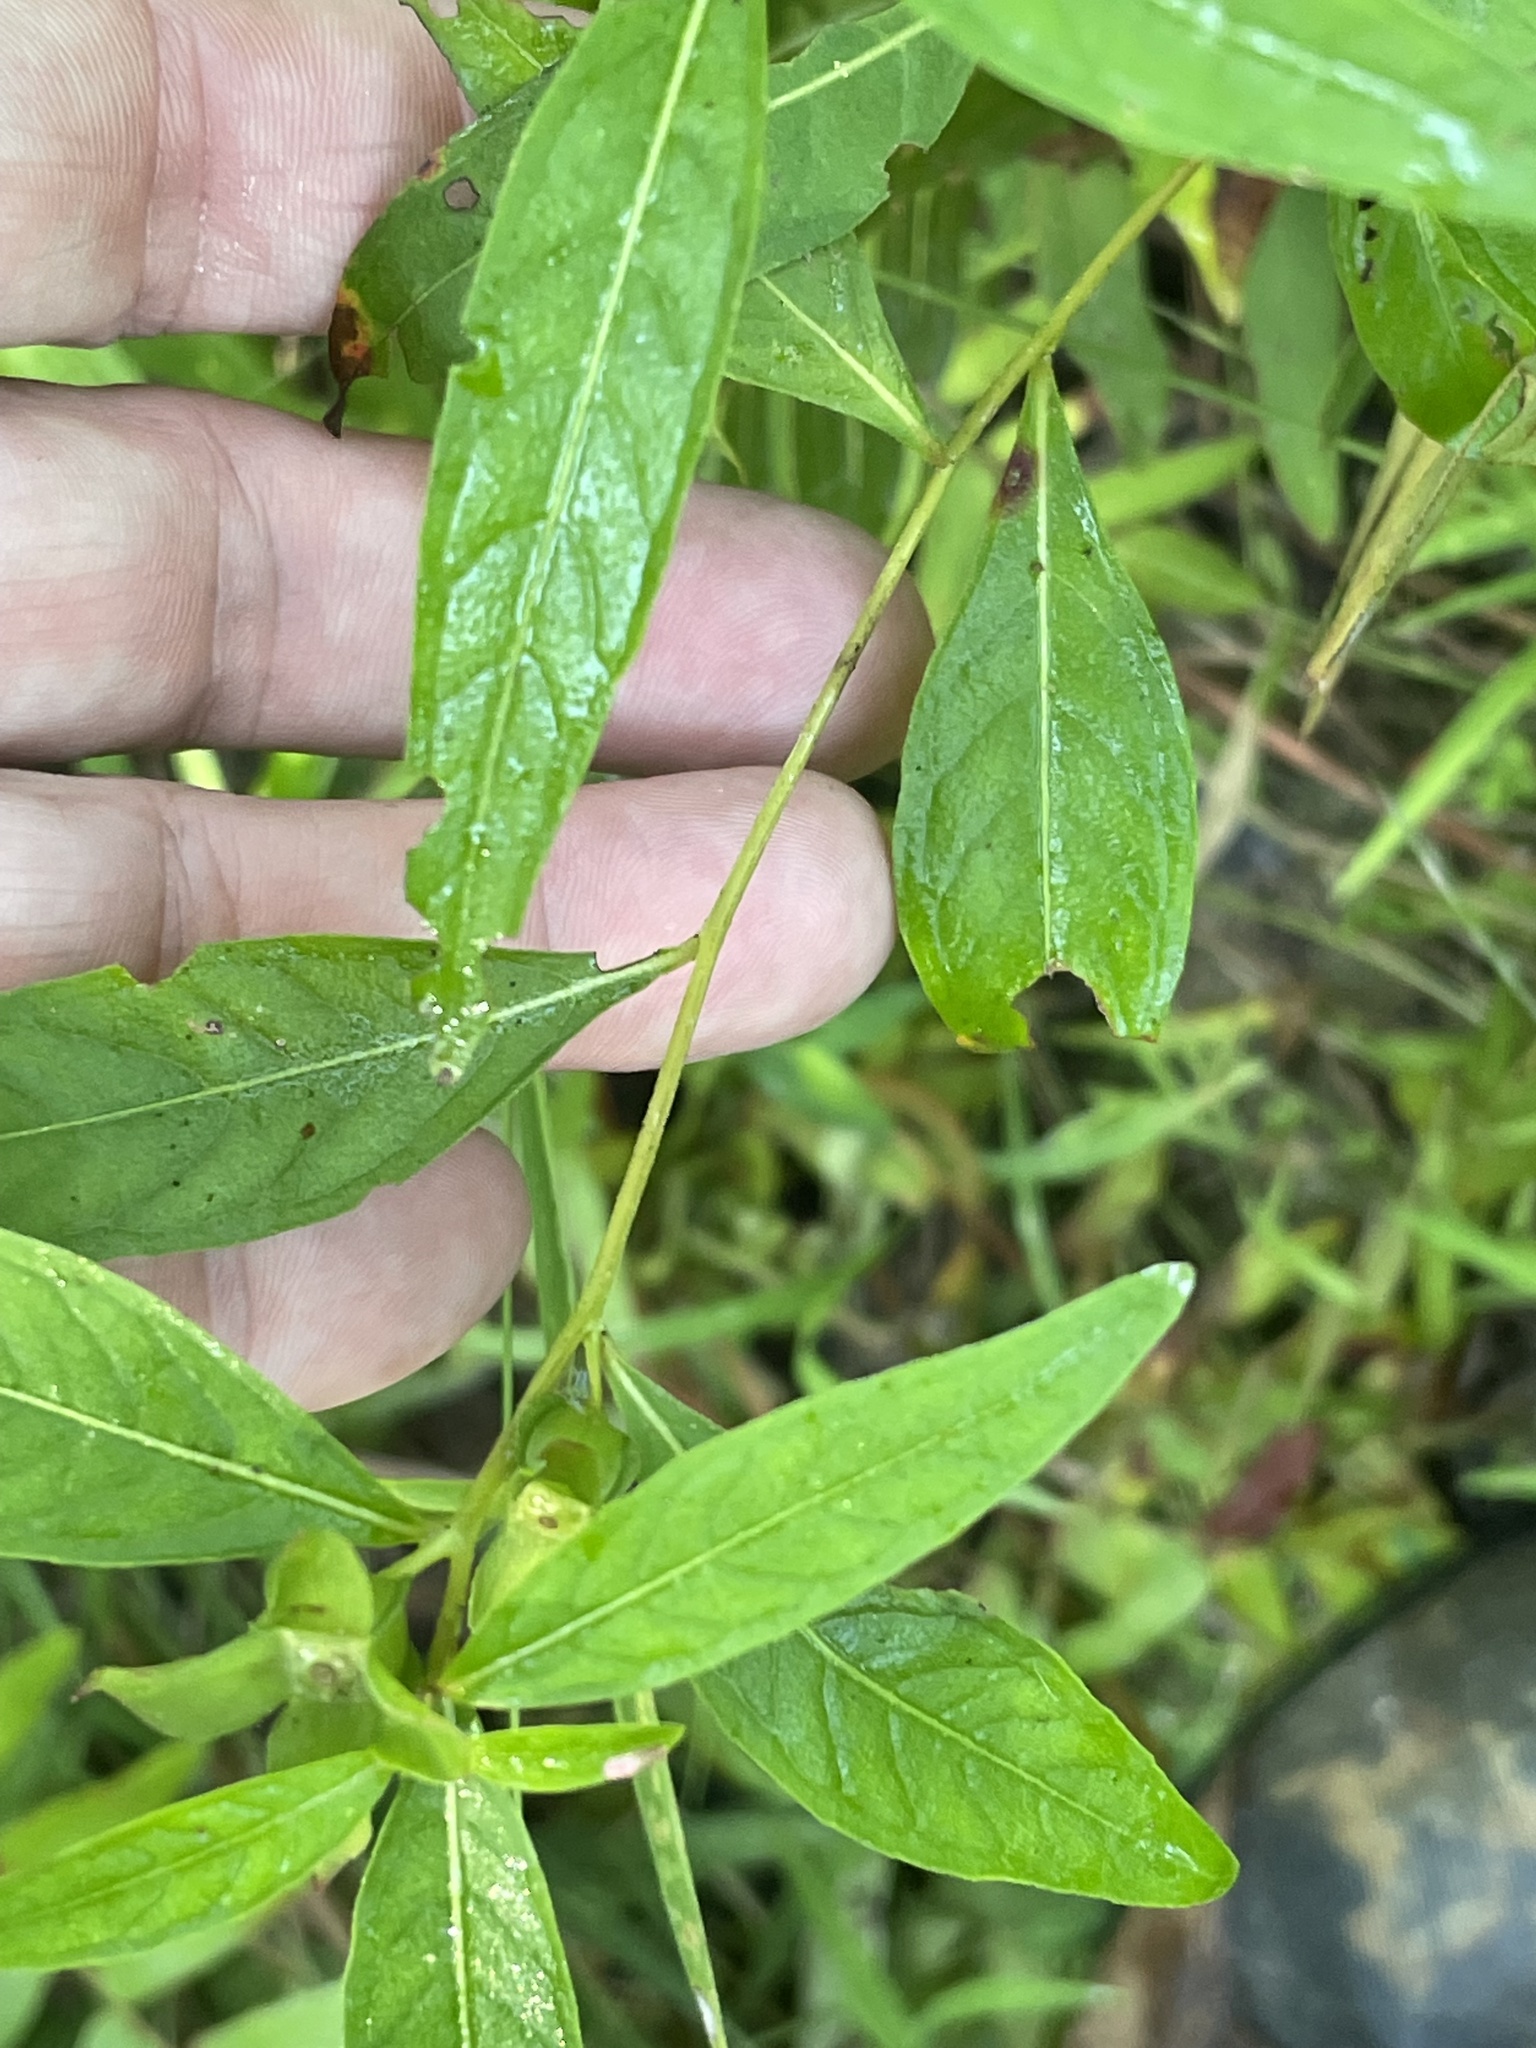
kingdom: Plantae
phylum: Tracheophyta
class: Magnoliopsida
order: Myrtales
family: Onagraceae
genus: Ludwigia
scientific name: Ludwigia alternifolia
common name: Rattlebox
